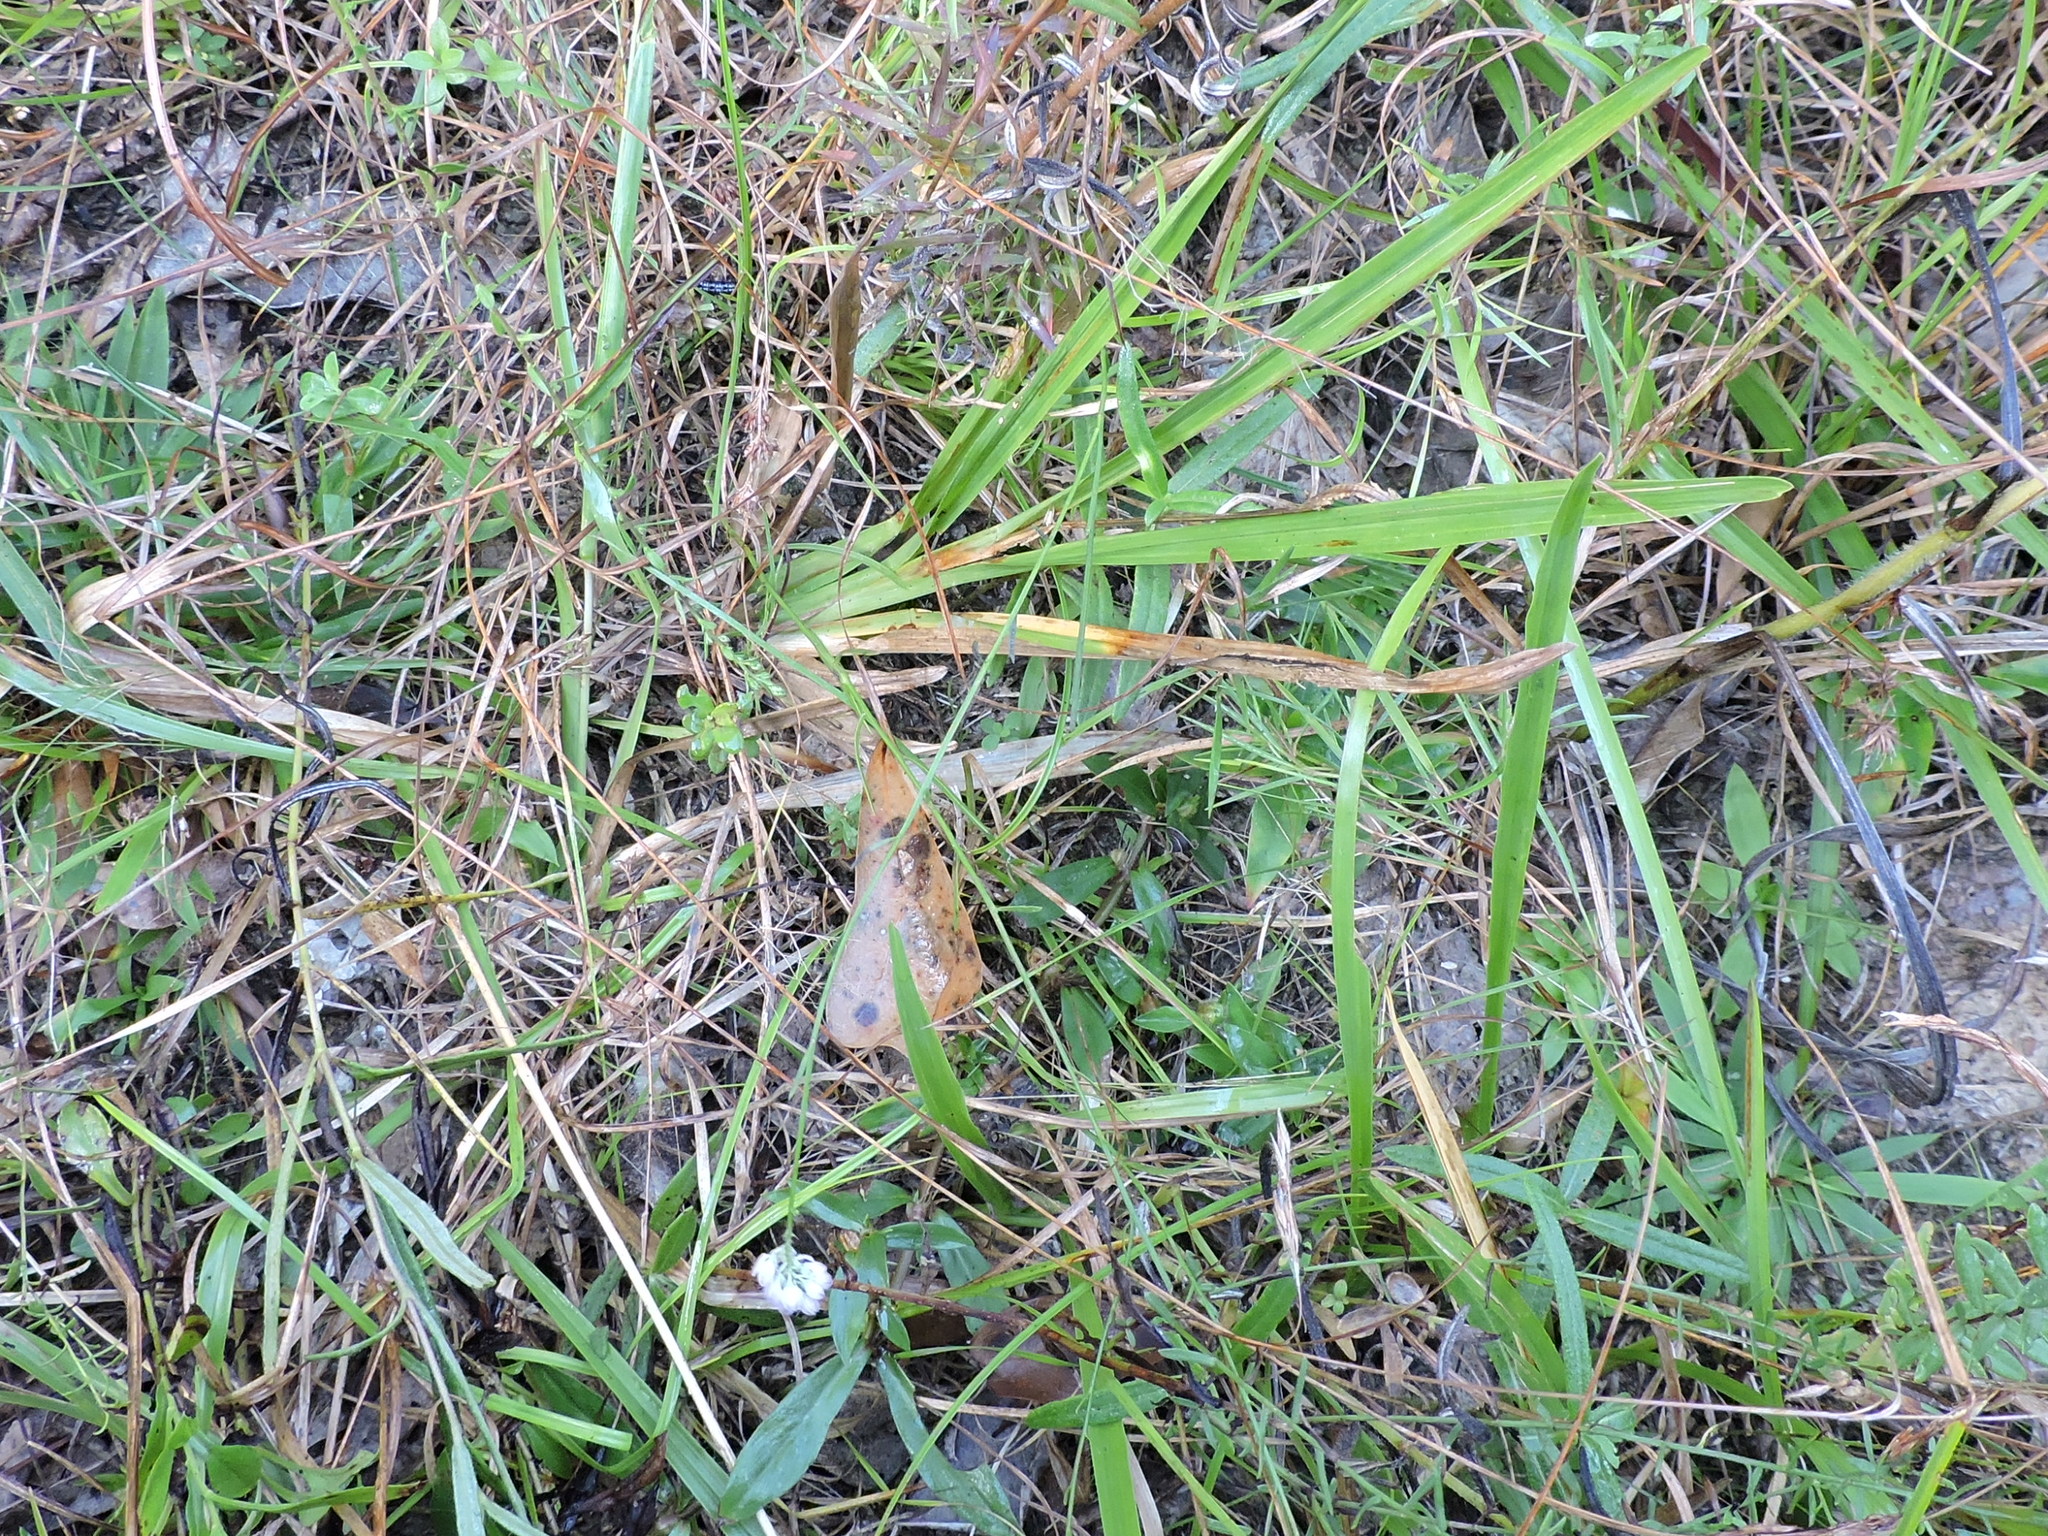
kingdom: Plantae
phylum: Tracheophyta
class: Magnoliopsida
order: Fabales
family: Polygalaceae
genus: Polygala
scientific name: Polygala mariana
